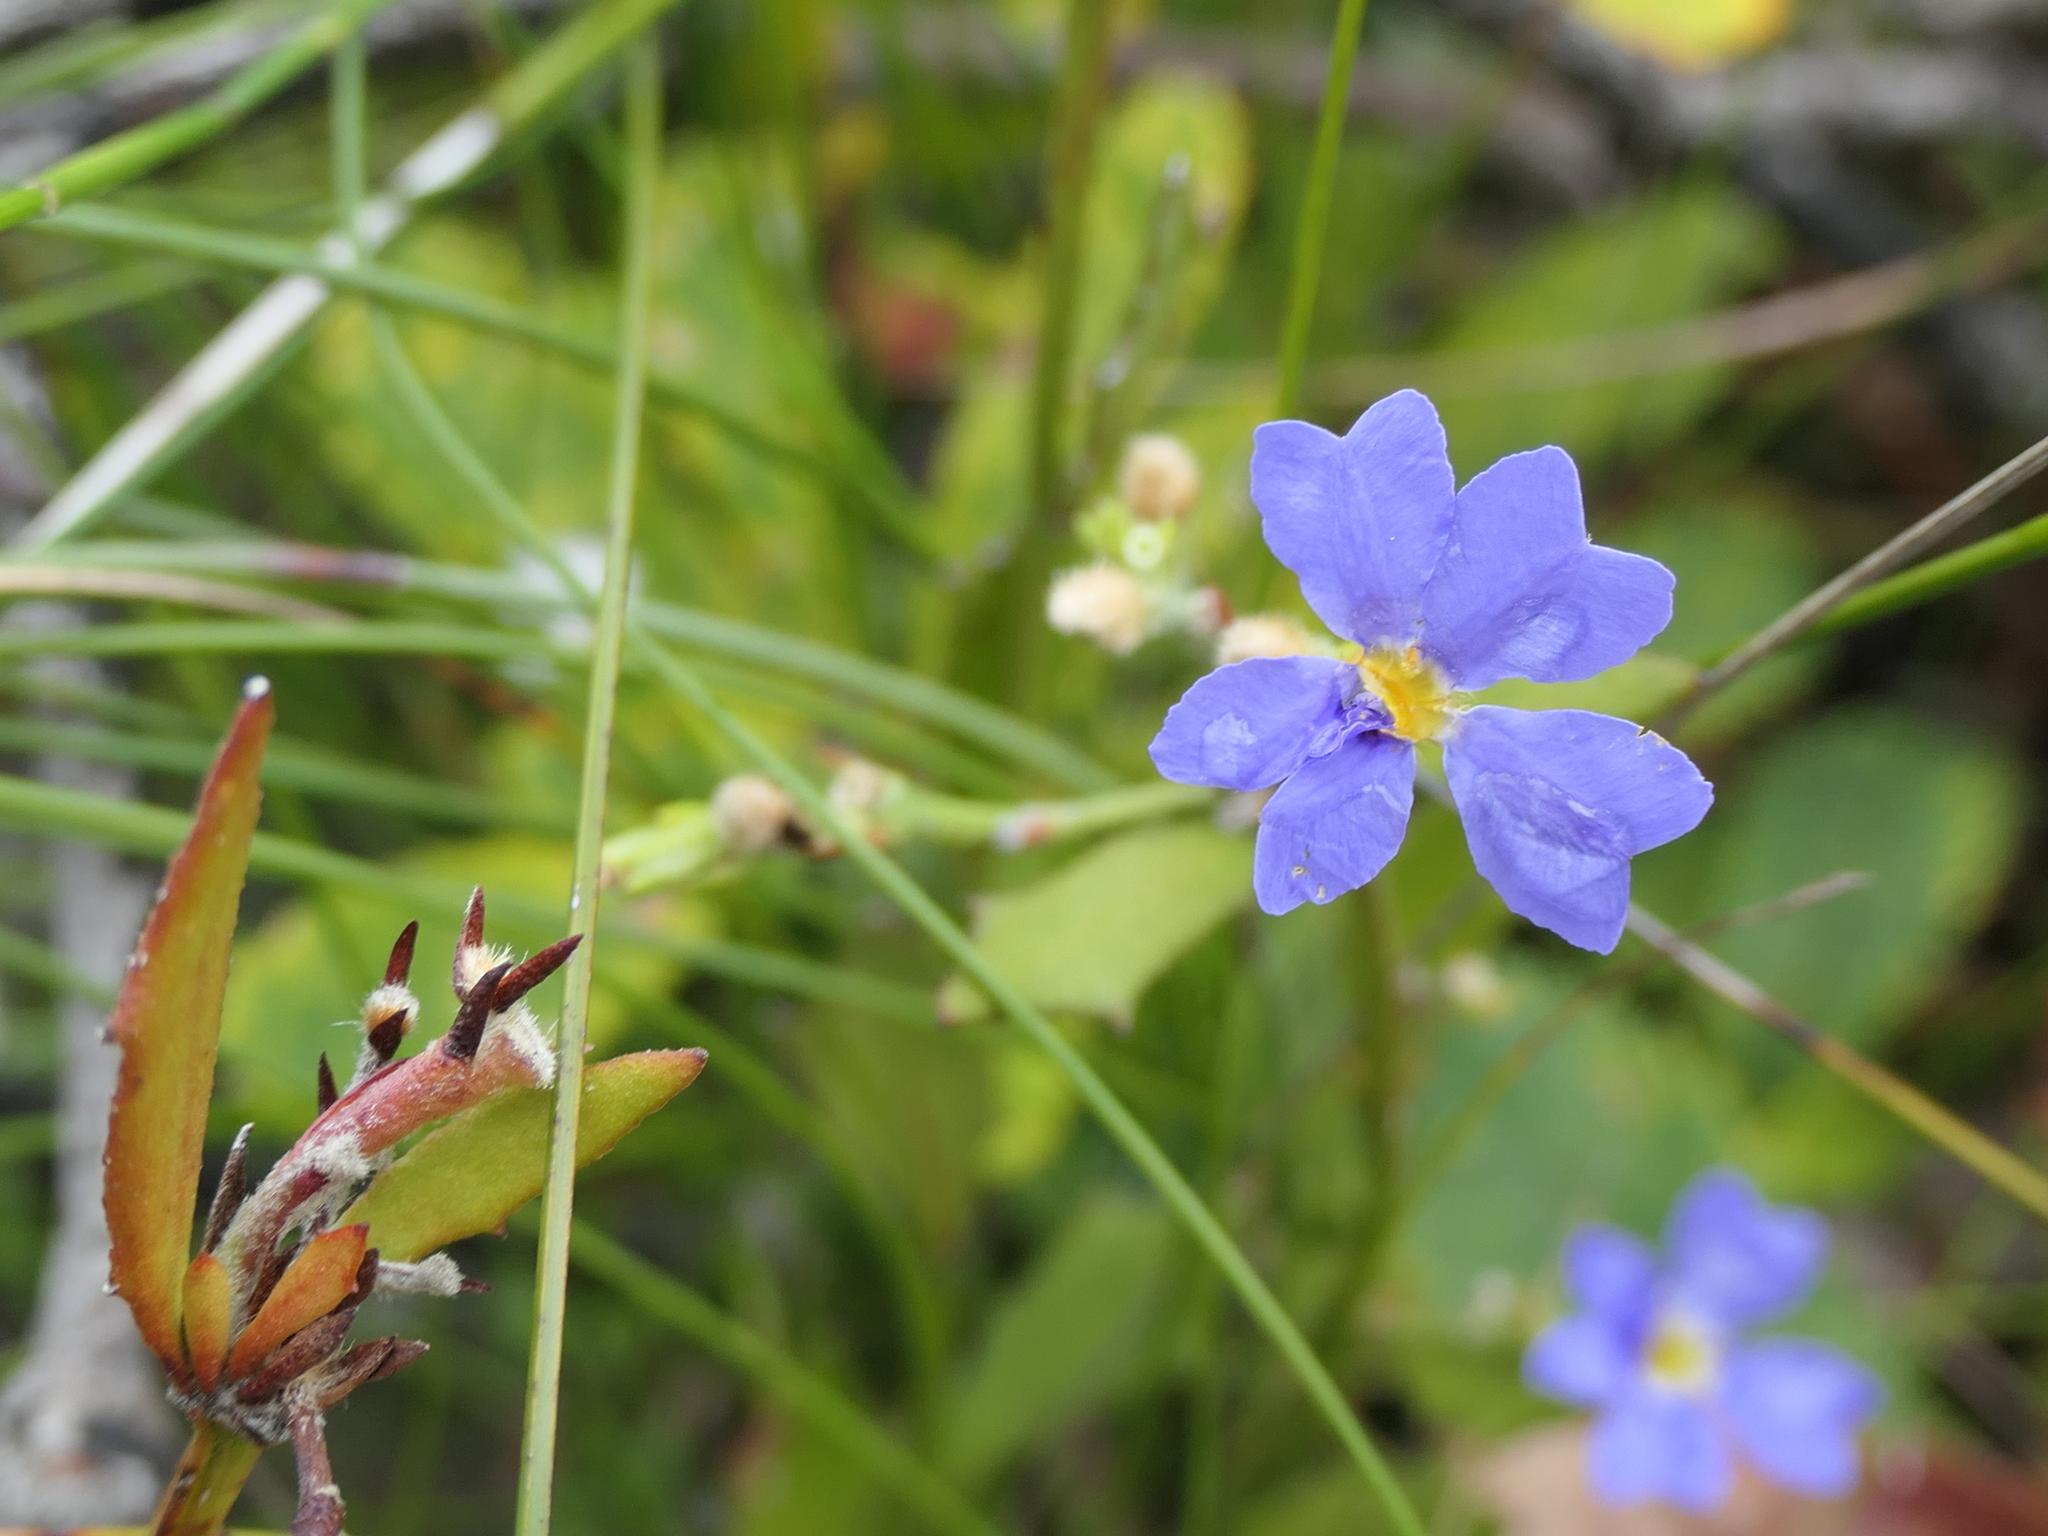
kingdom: Plantae
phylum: Tracheophyta
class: Magnoliopsida
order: Asterales
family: Goodeniaceae
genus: Dampiera
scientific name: Dampiera stricta
